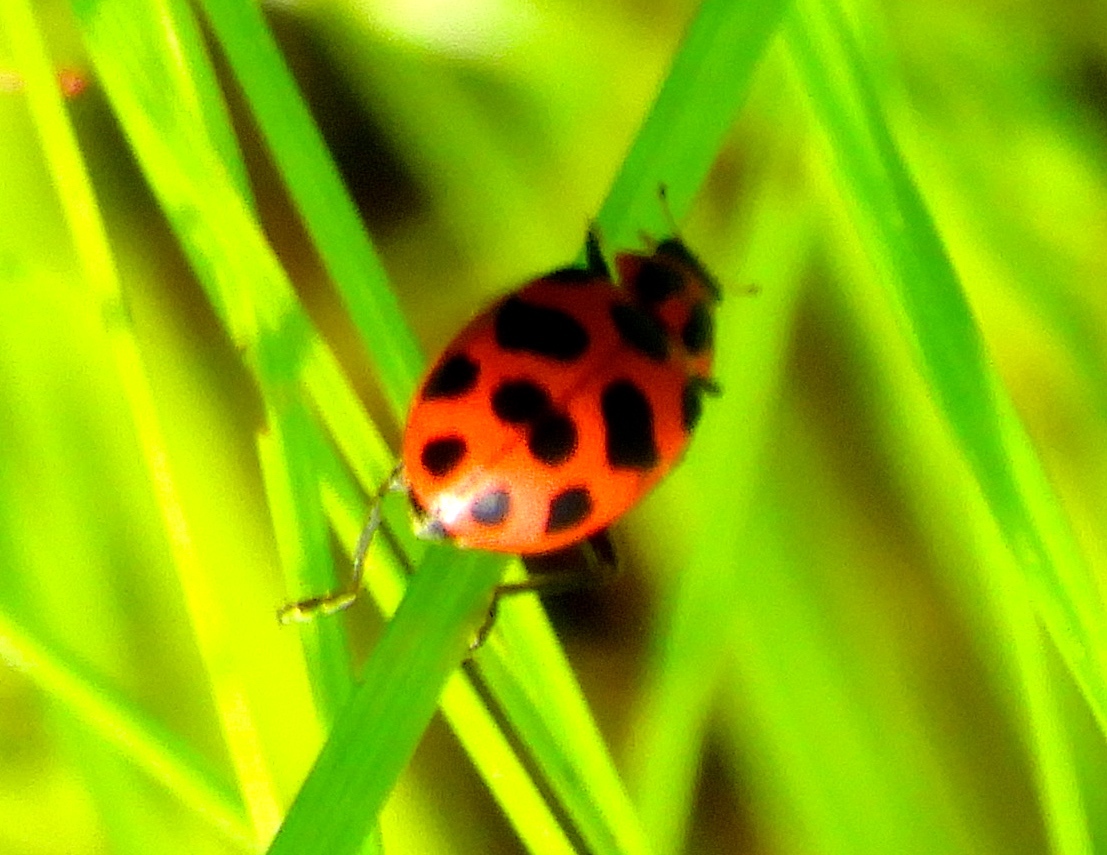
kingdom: Animalia
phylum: Arthropoda
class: Insecta
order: Coleoptera
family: Coccinellidae
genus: Coleomegilla
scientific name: Coleomegilla maculata
